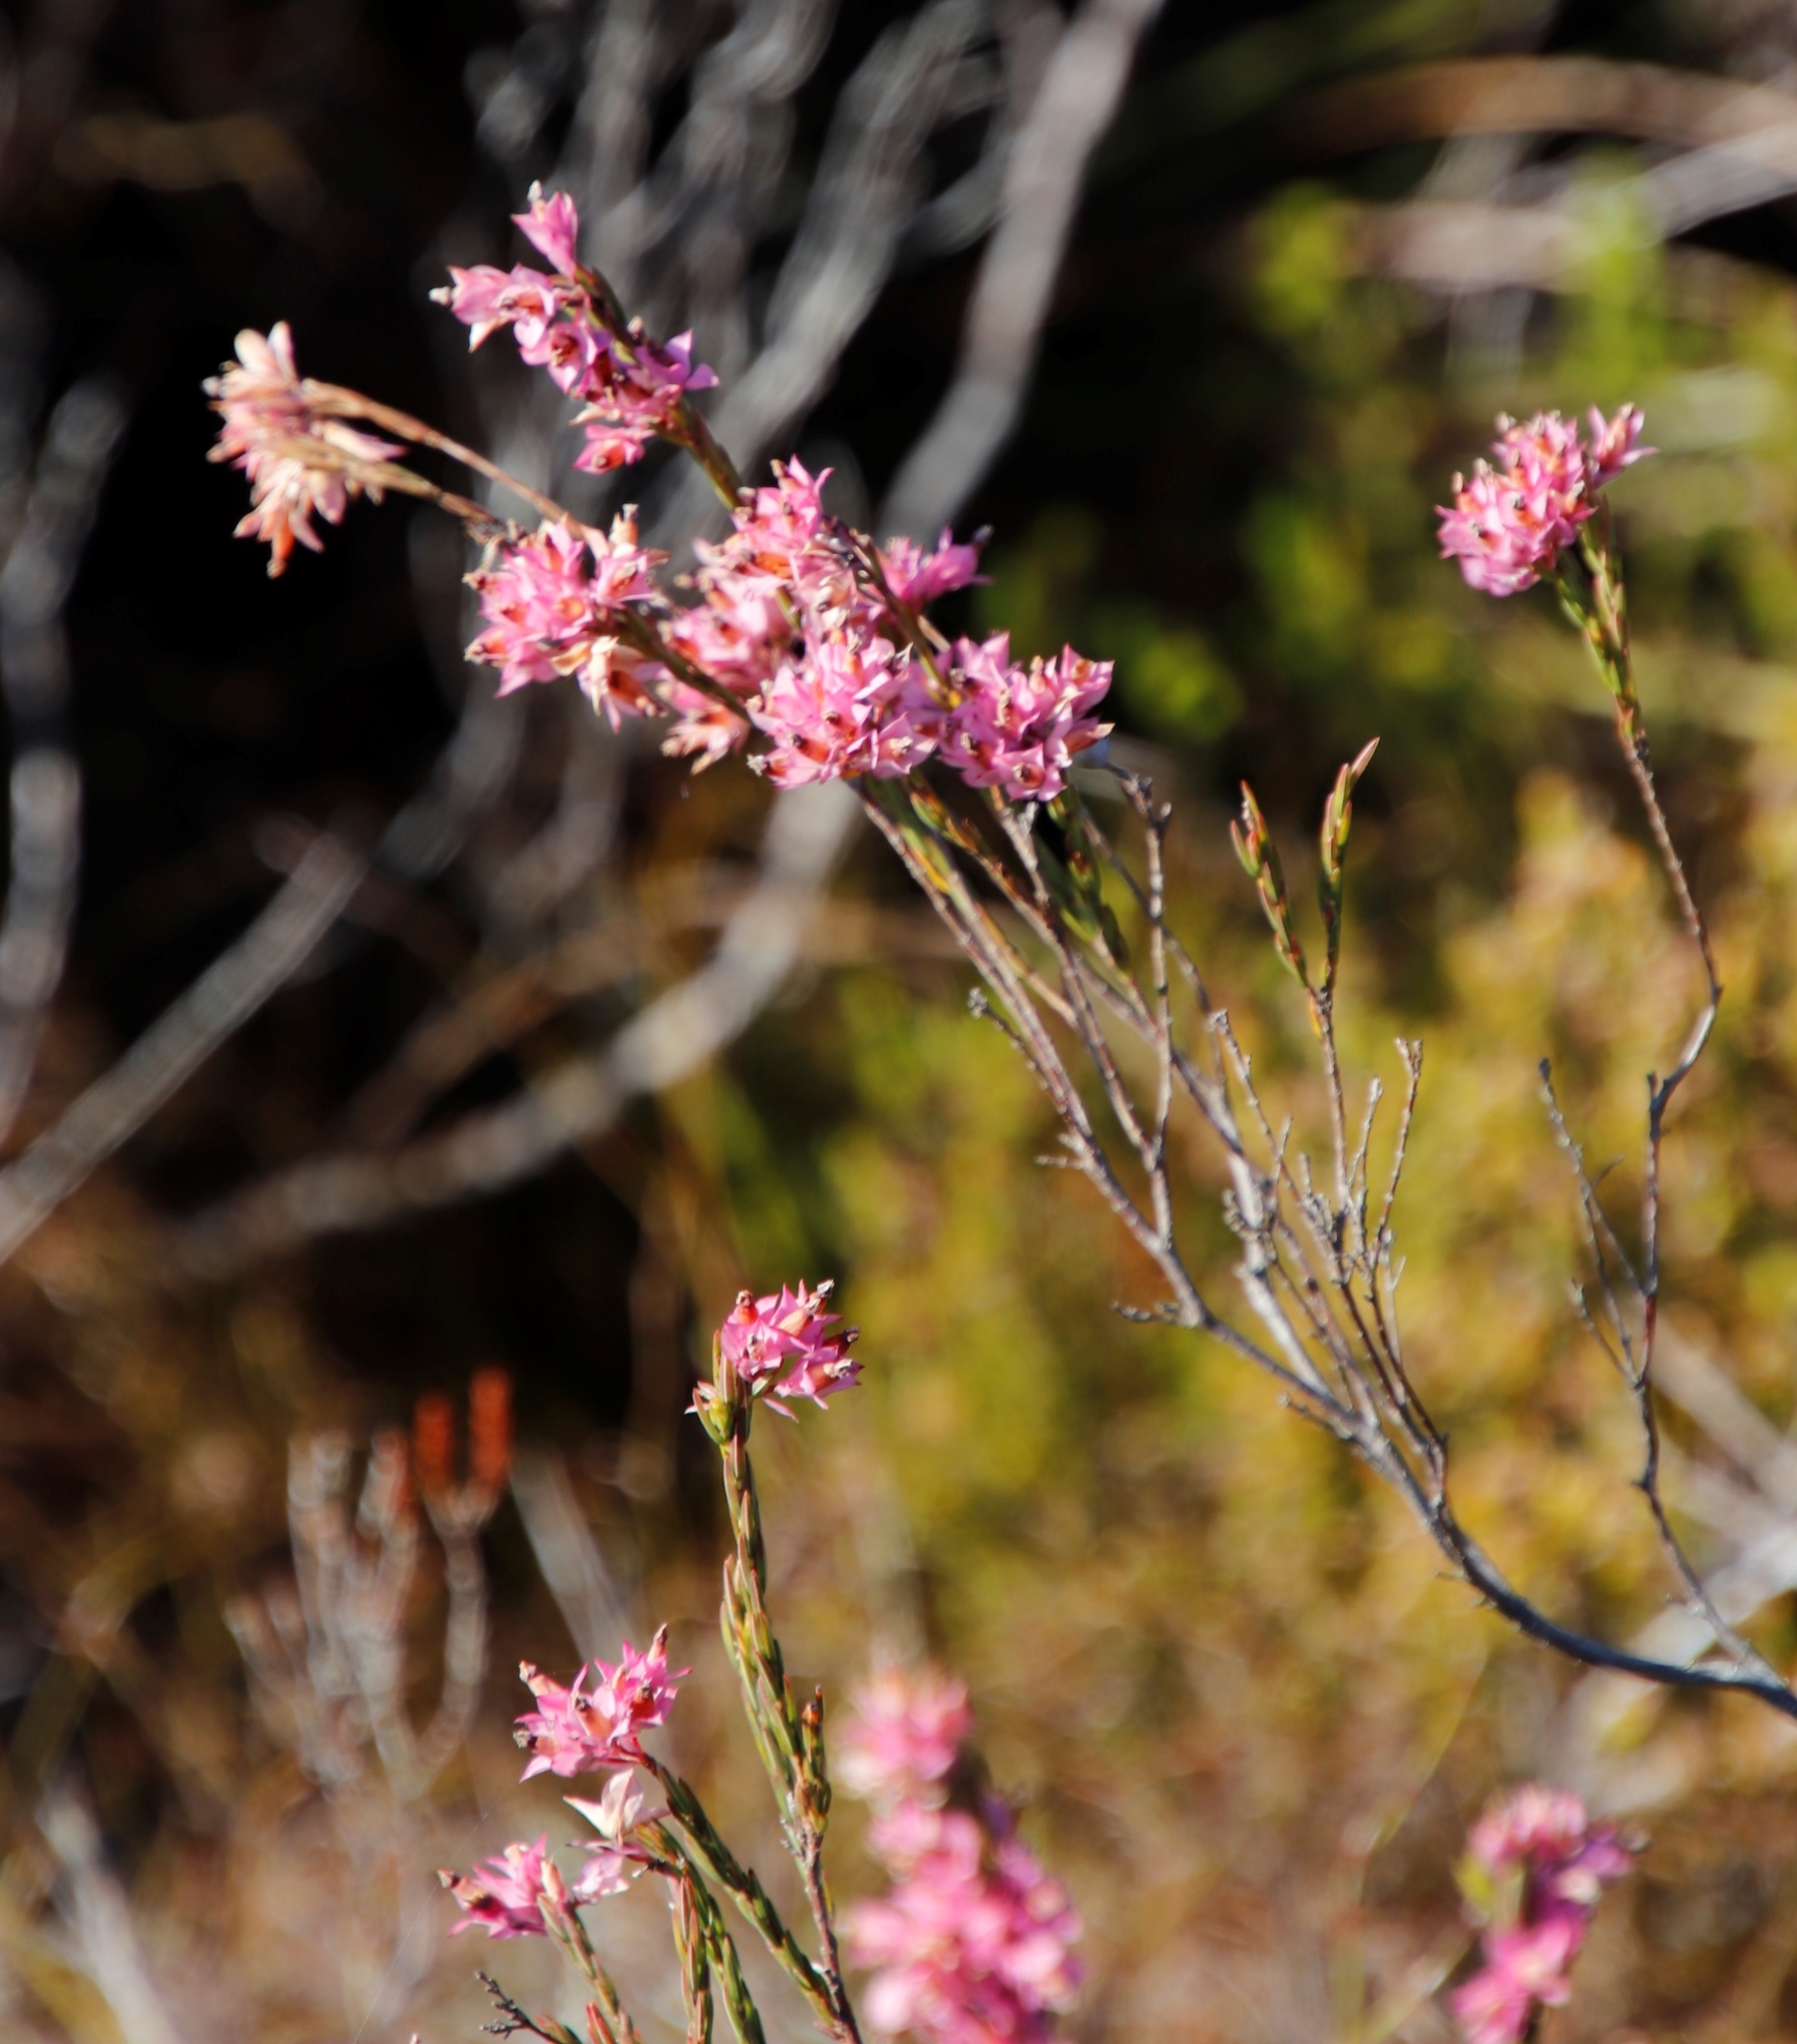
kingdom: Plantae
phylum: Tracheophyta
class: Magnoliopsida
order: Ericales
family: Ericaceae
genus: Erica
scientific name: Erica corifolia
